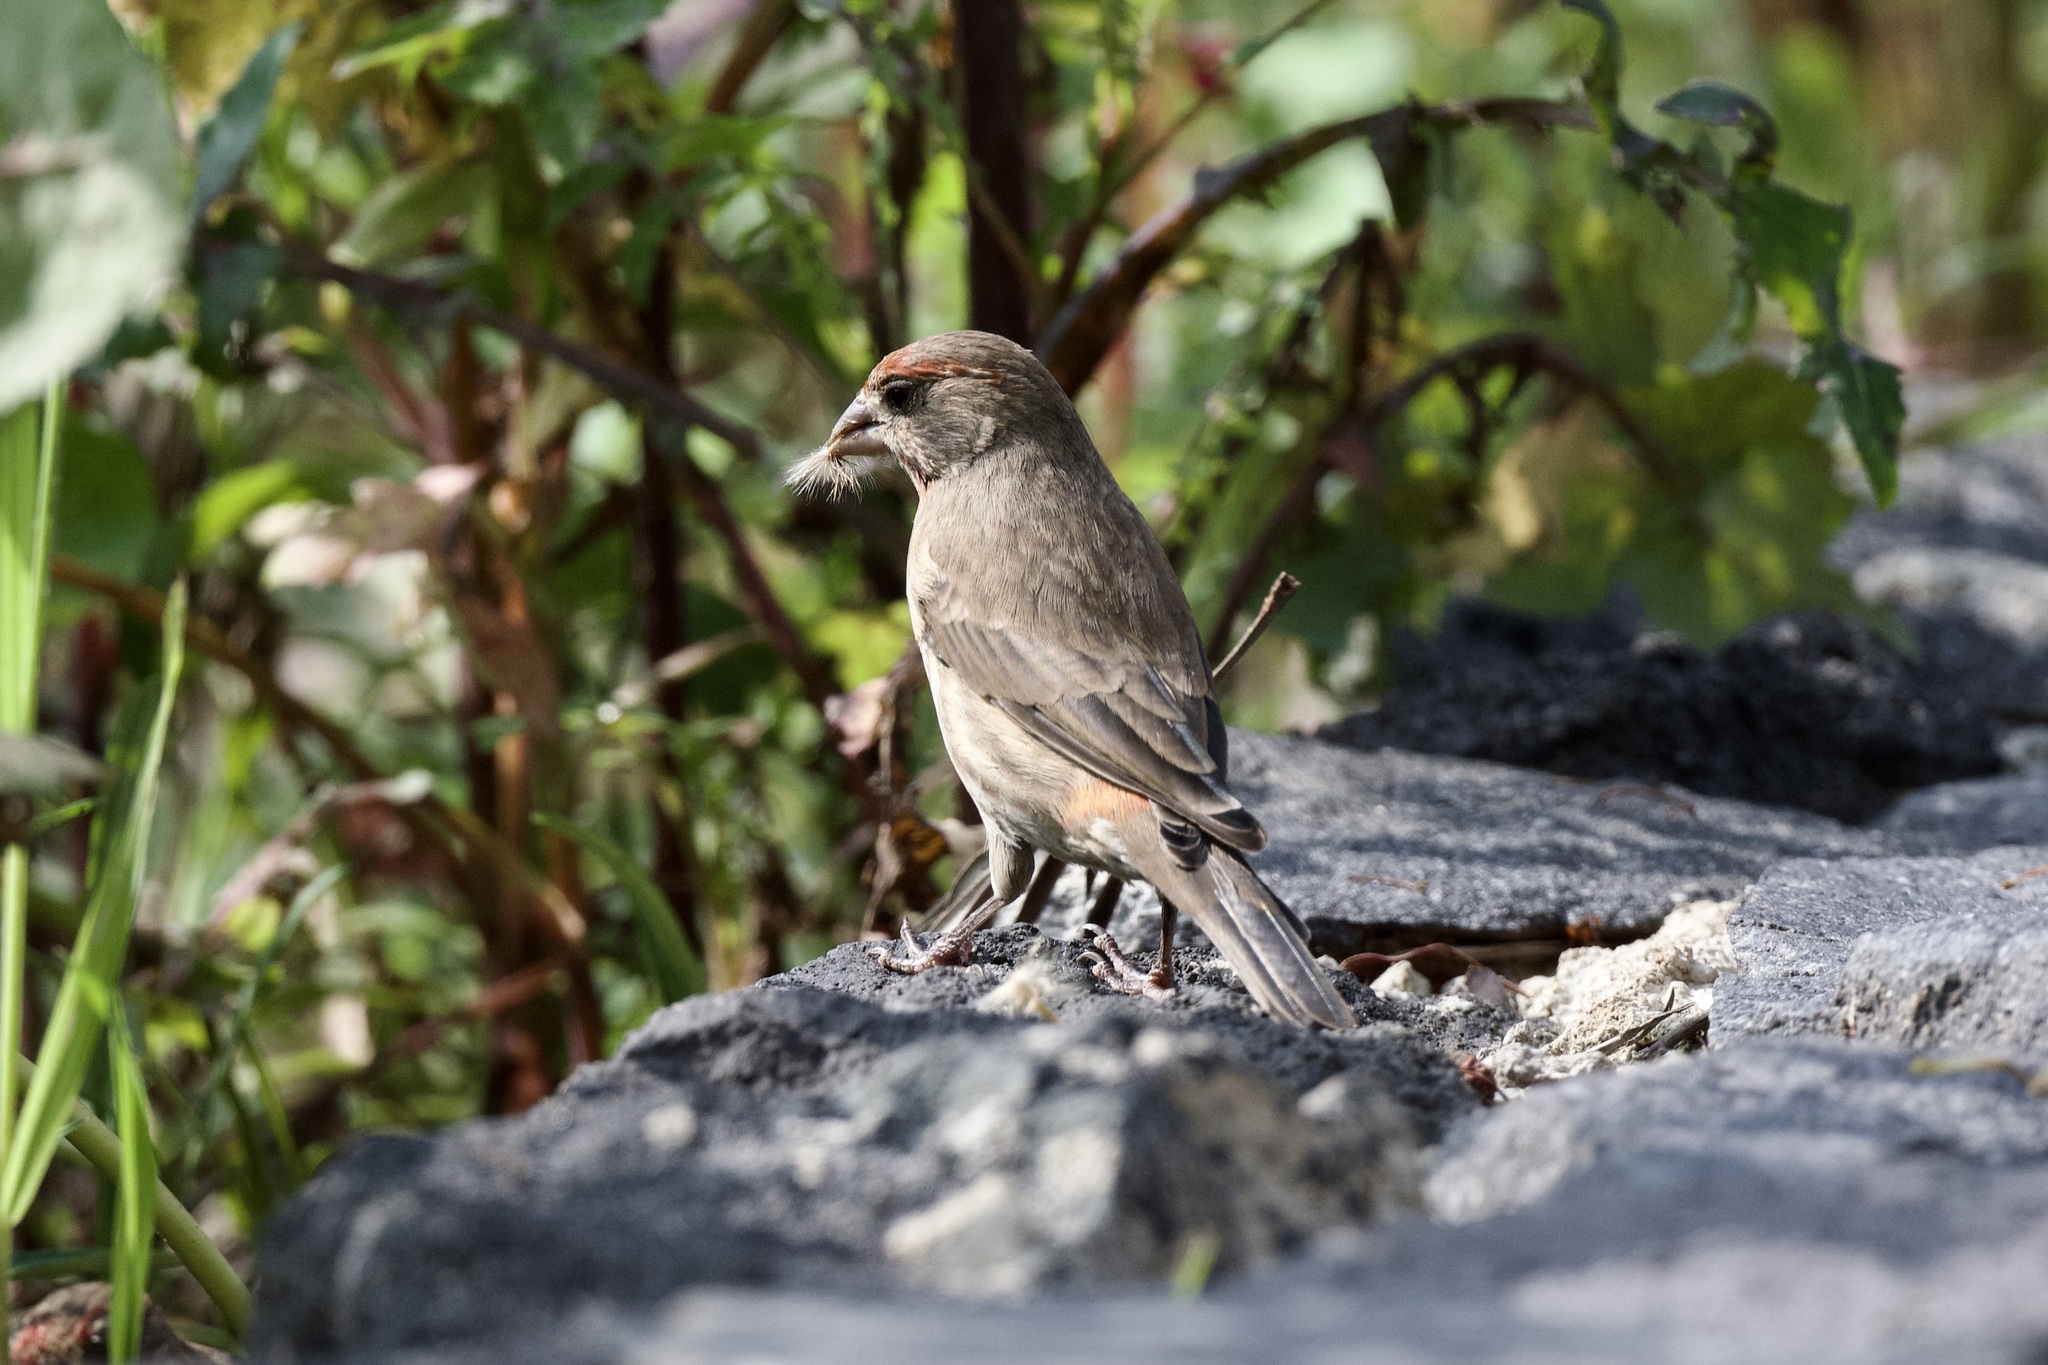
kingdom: Animalia
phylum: Chordata
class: Aves
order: Passeriformes
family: Passerellidae
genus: Melozone
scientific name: Melozone fusca
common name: Canyon towhee
